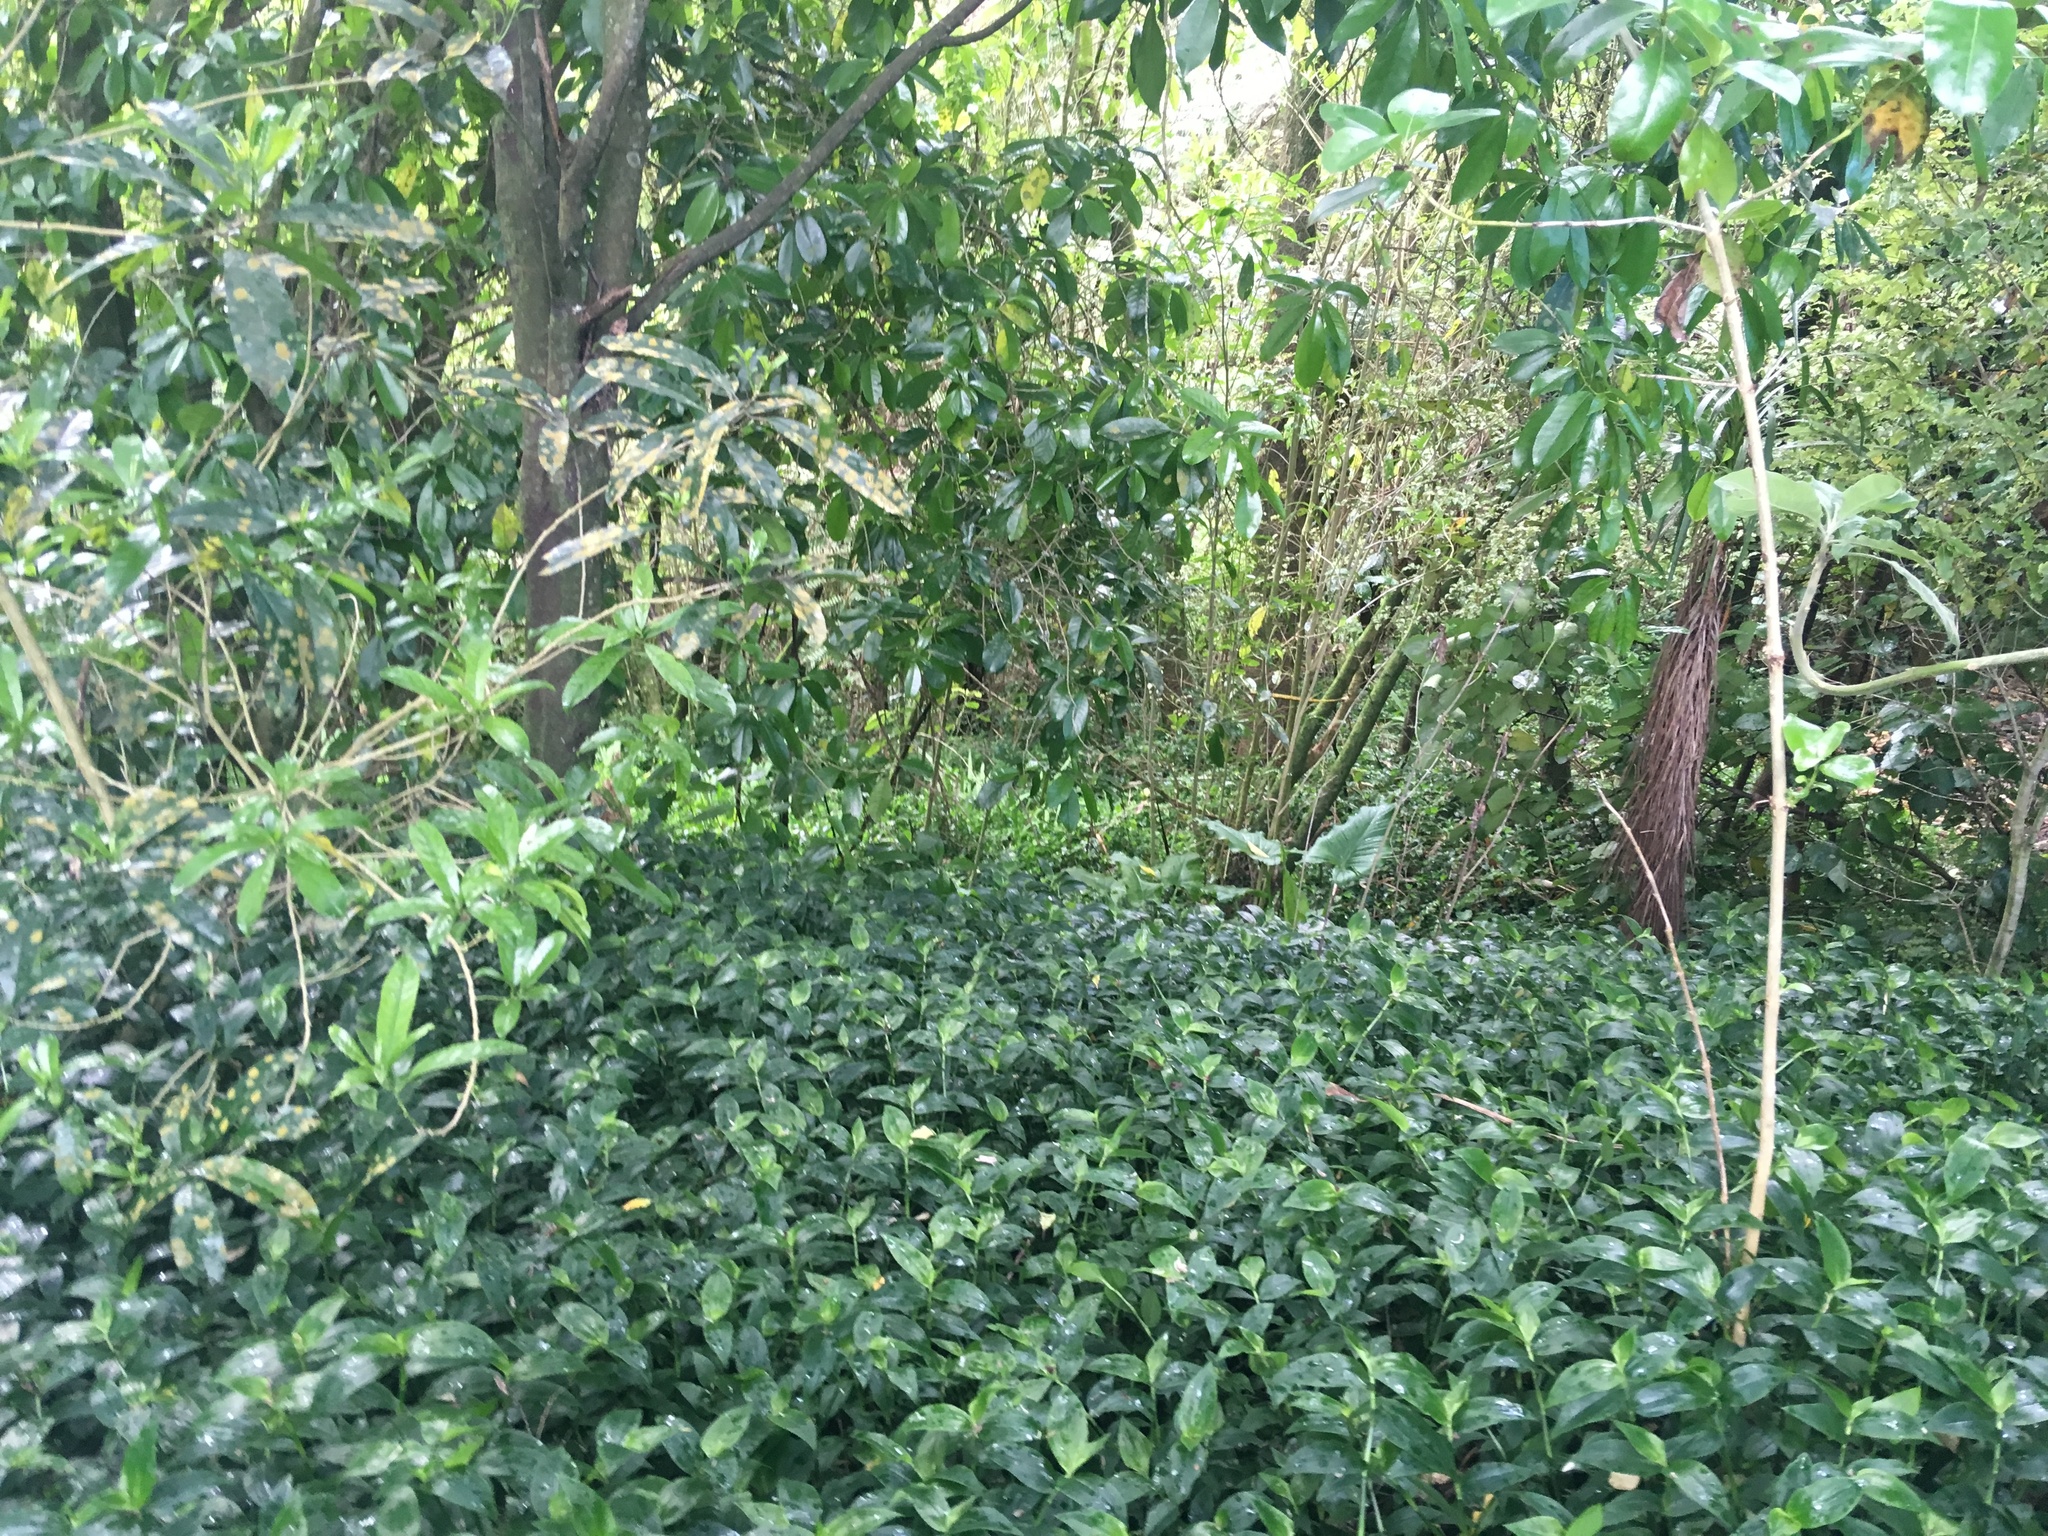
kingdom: Plantae
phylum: Tracheophyta
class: Liliopsida
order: Commelinales
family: Commelinaceae
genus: Tradescantia
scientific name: Tradescantia fluminensis
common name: Wandering-jew
